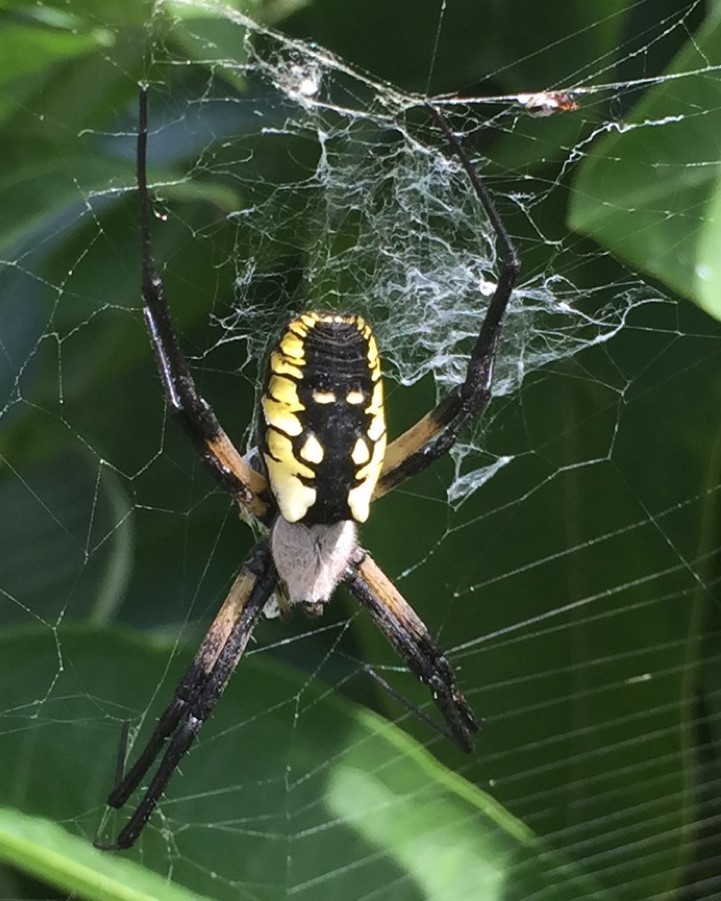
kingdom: Animalia
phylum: Arthropoda
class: Arachnida
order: Araneae
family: Araneidae
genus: Argiope
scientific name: Argiope aurantia
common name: Orb weavers
